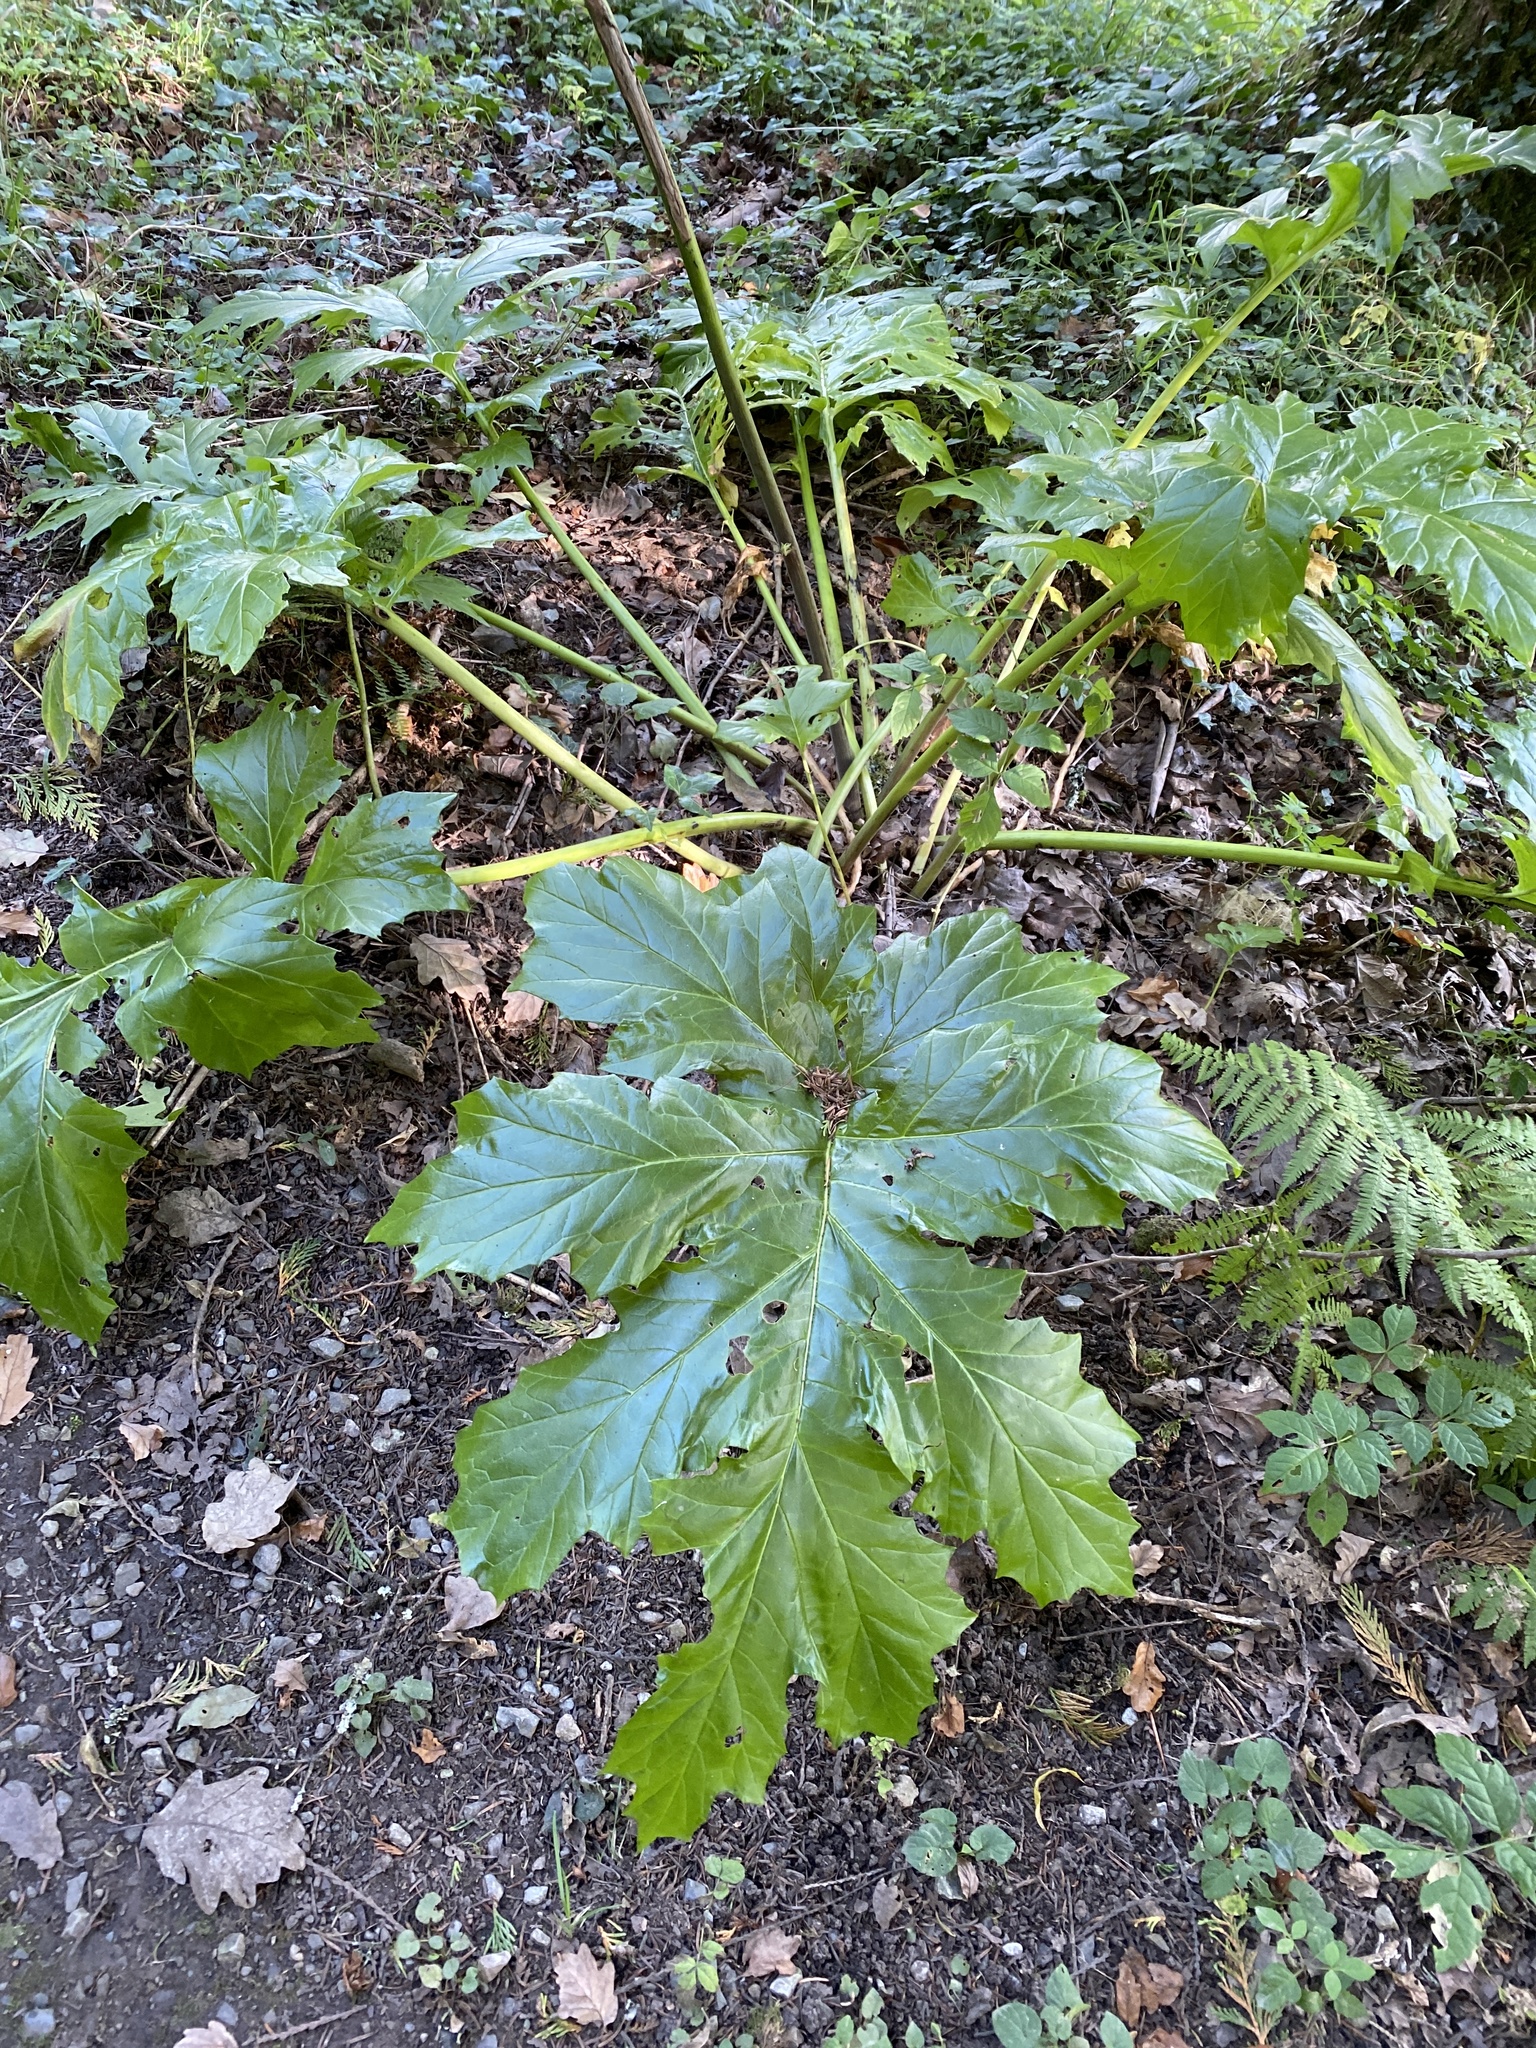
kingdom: Plantae
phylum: Tracheophyta
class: Magnoliopsida
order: Lamiales
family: Acanthaceae
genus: Acanthus
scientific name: Acanthus mollis
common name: Bear's-breech
